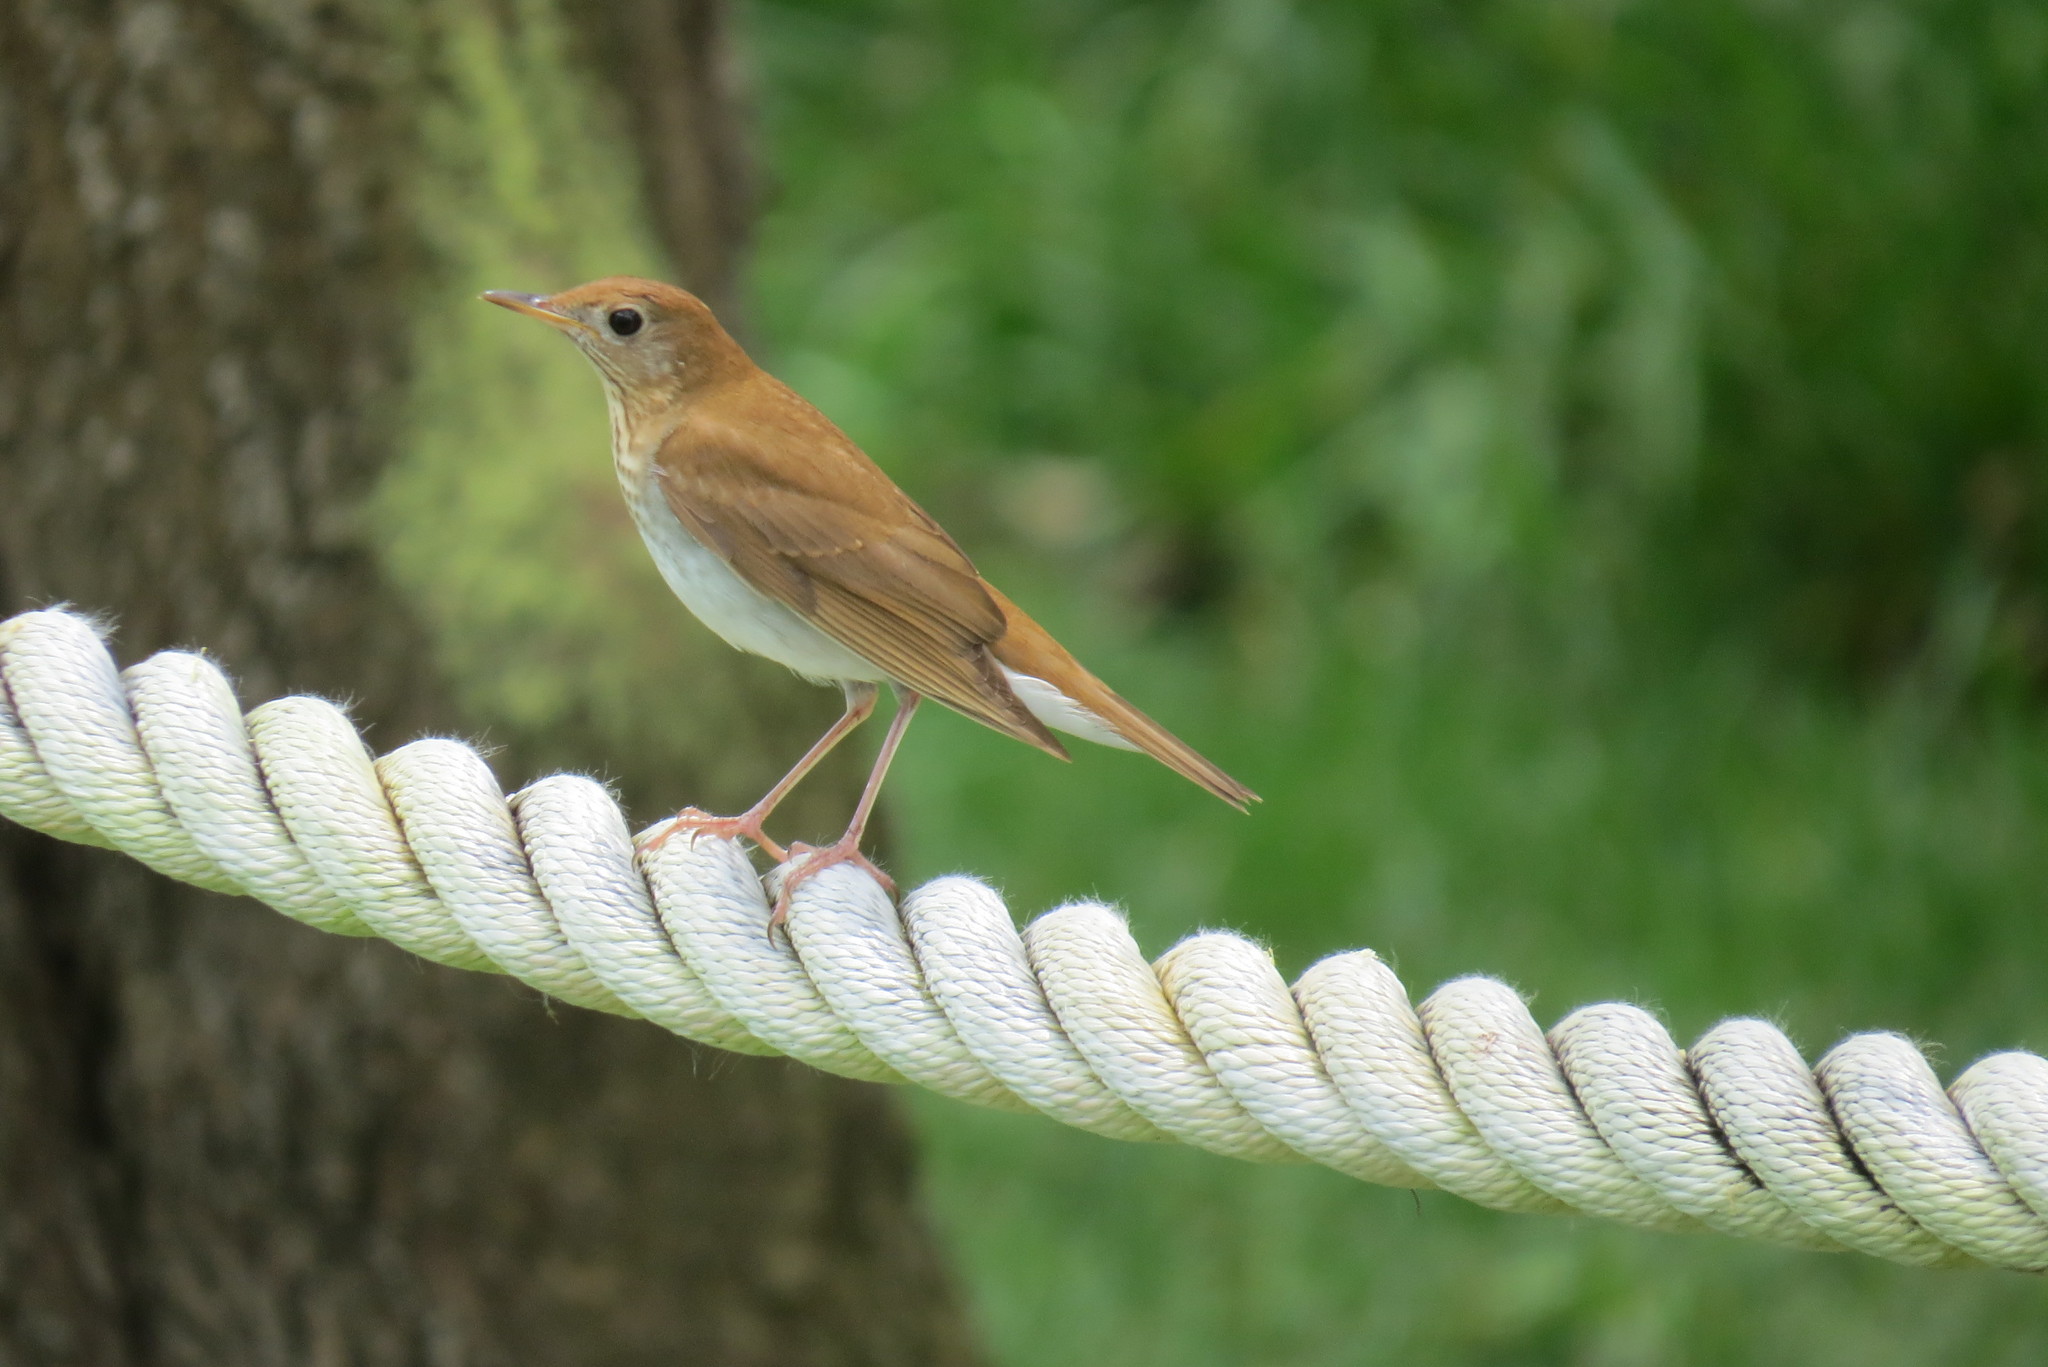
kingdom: Animalia
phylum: Chordata
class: Aves
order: Passeriformes
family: Turdidae
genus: Catharus
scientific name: Catharus fuscescens
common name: Veery
